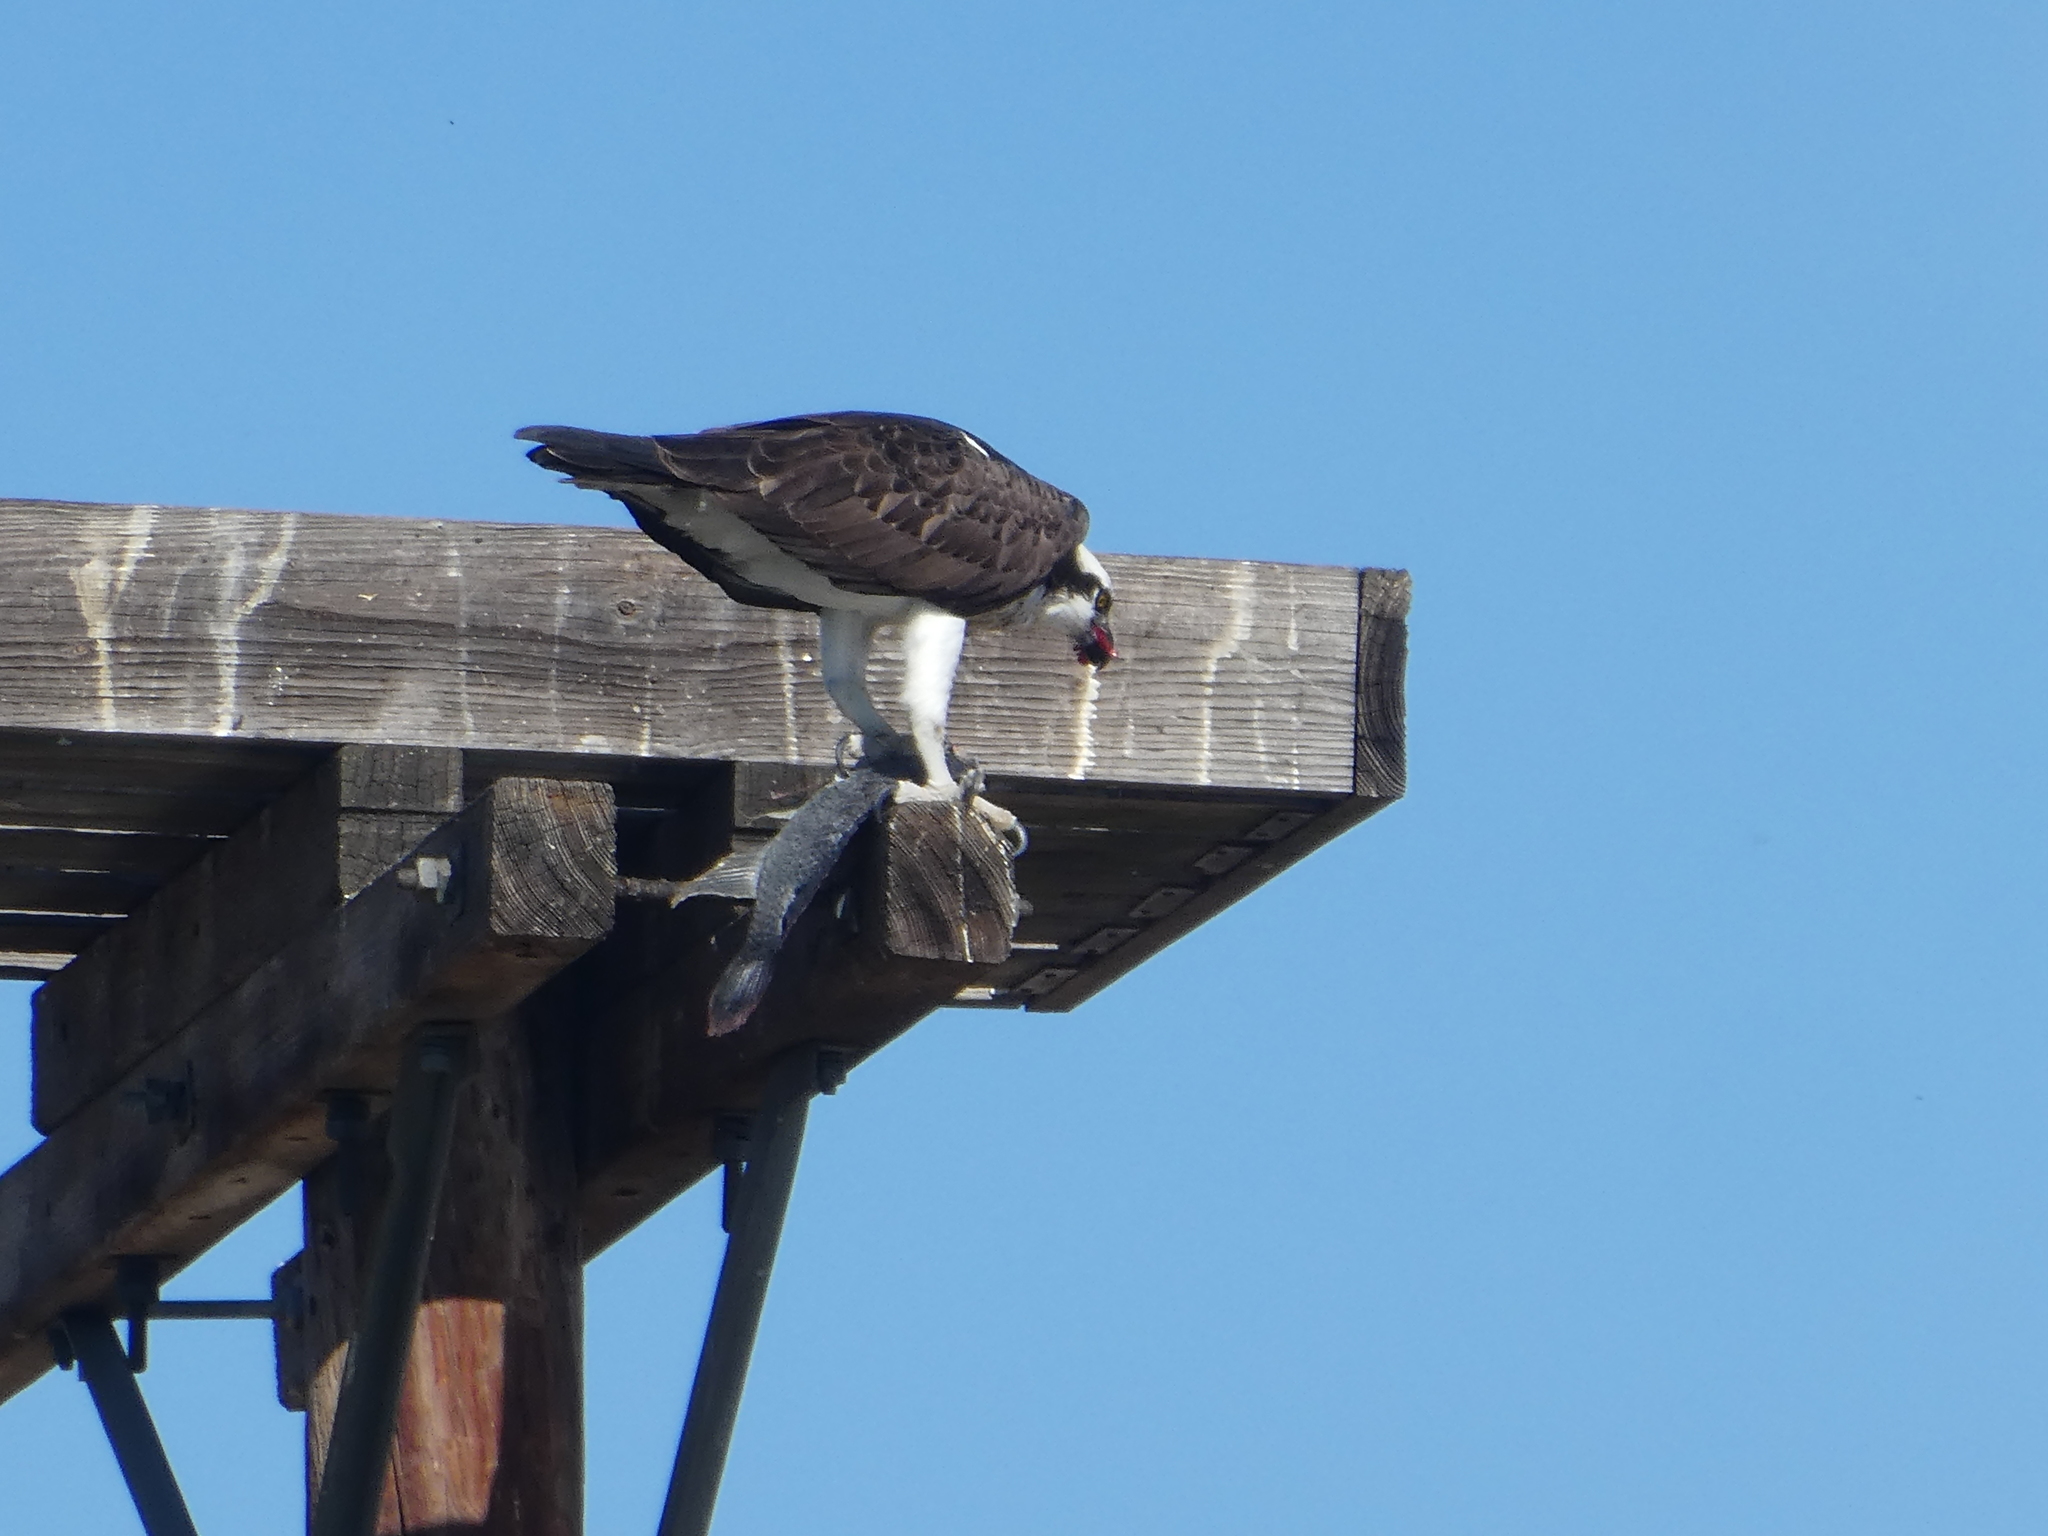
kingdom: Animalia
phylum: Chordata
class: Aves
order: Accipitriformes
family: Pandionidae
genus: Pandion
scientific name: Pandion haliaetus
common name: Osprey
